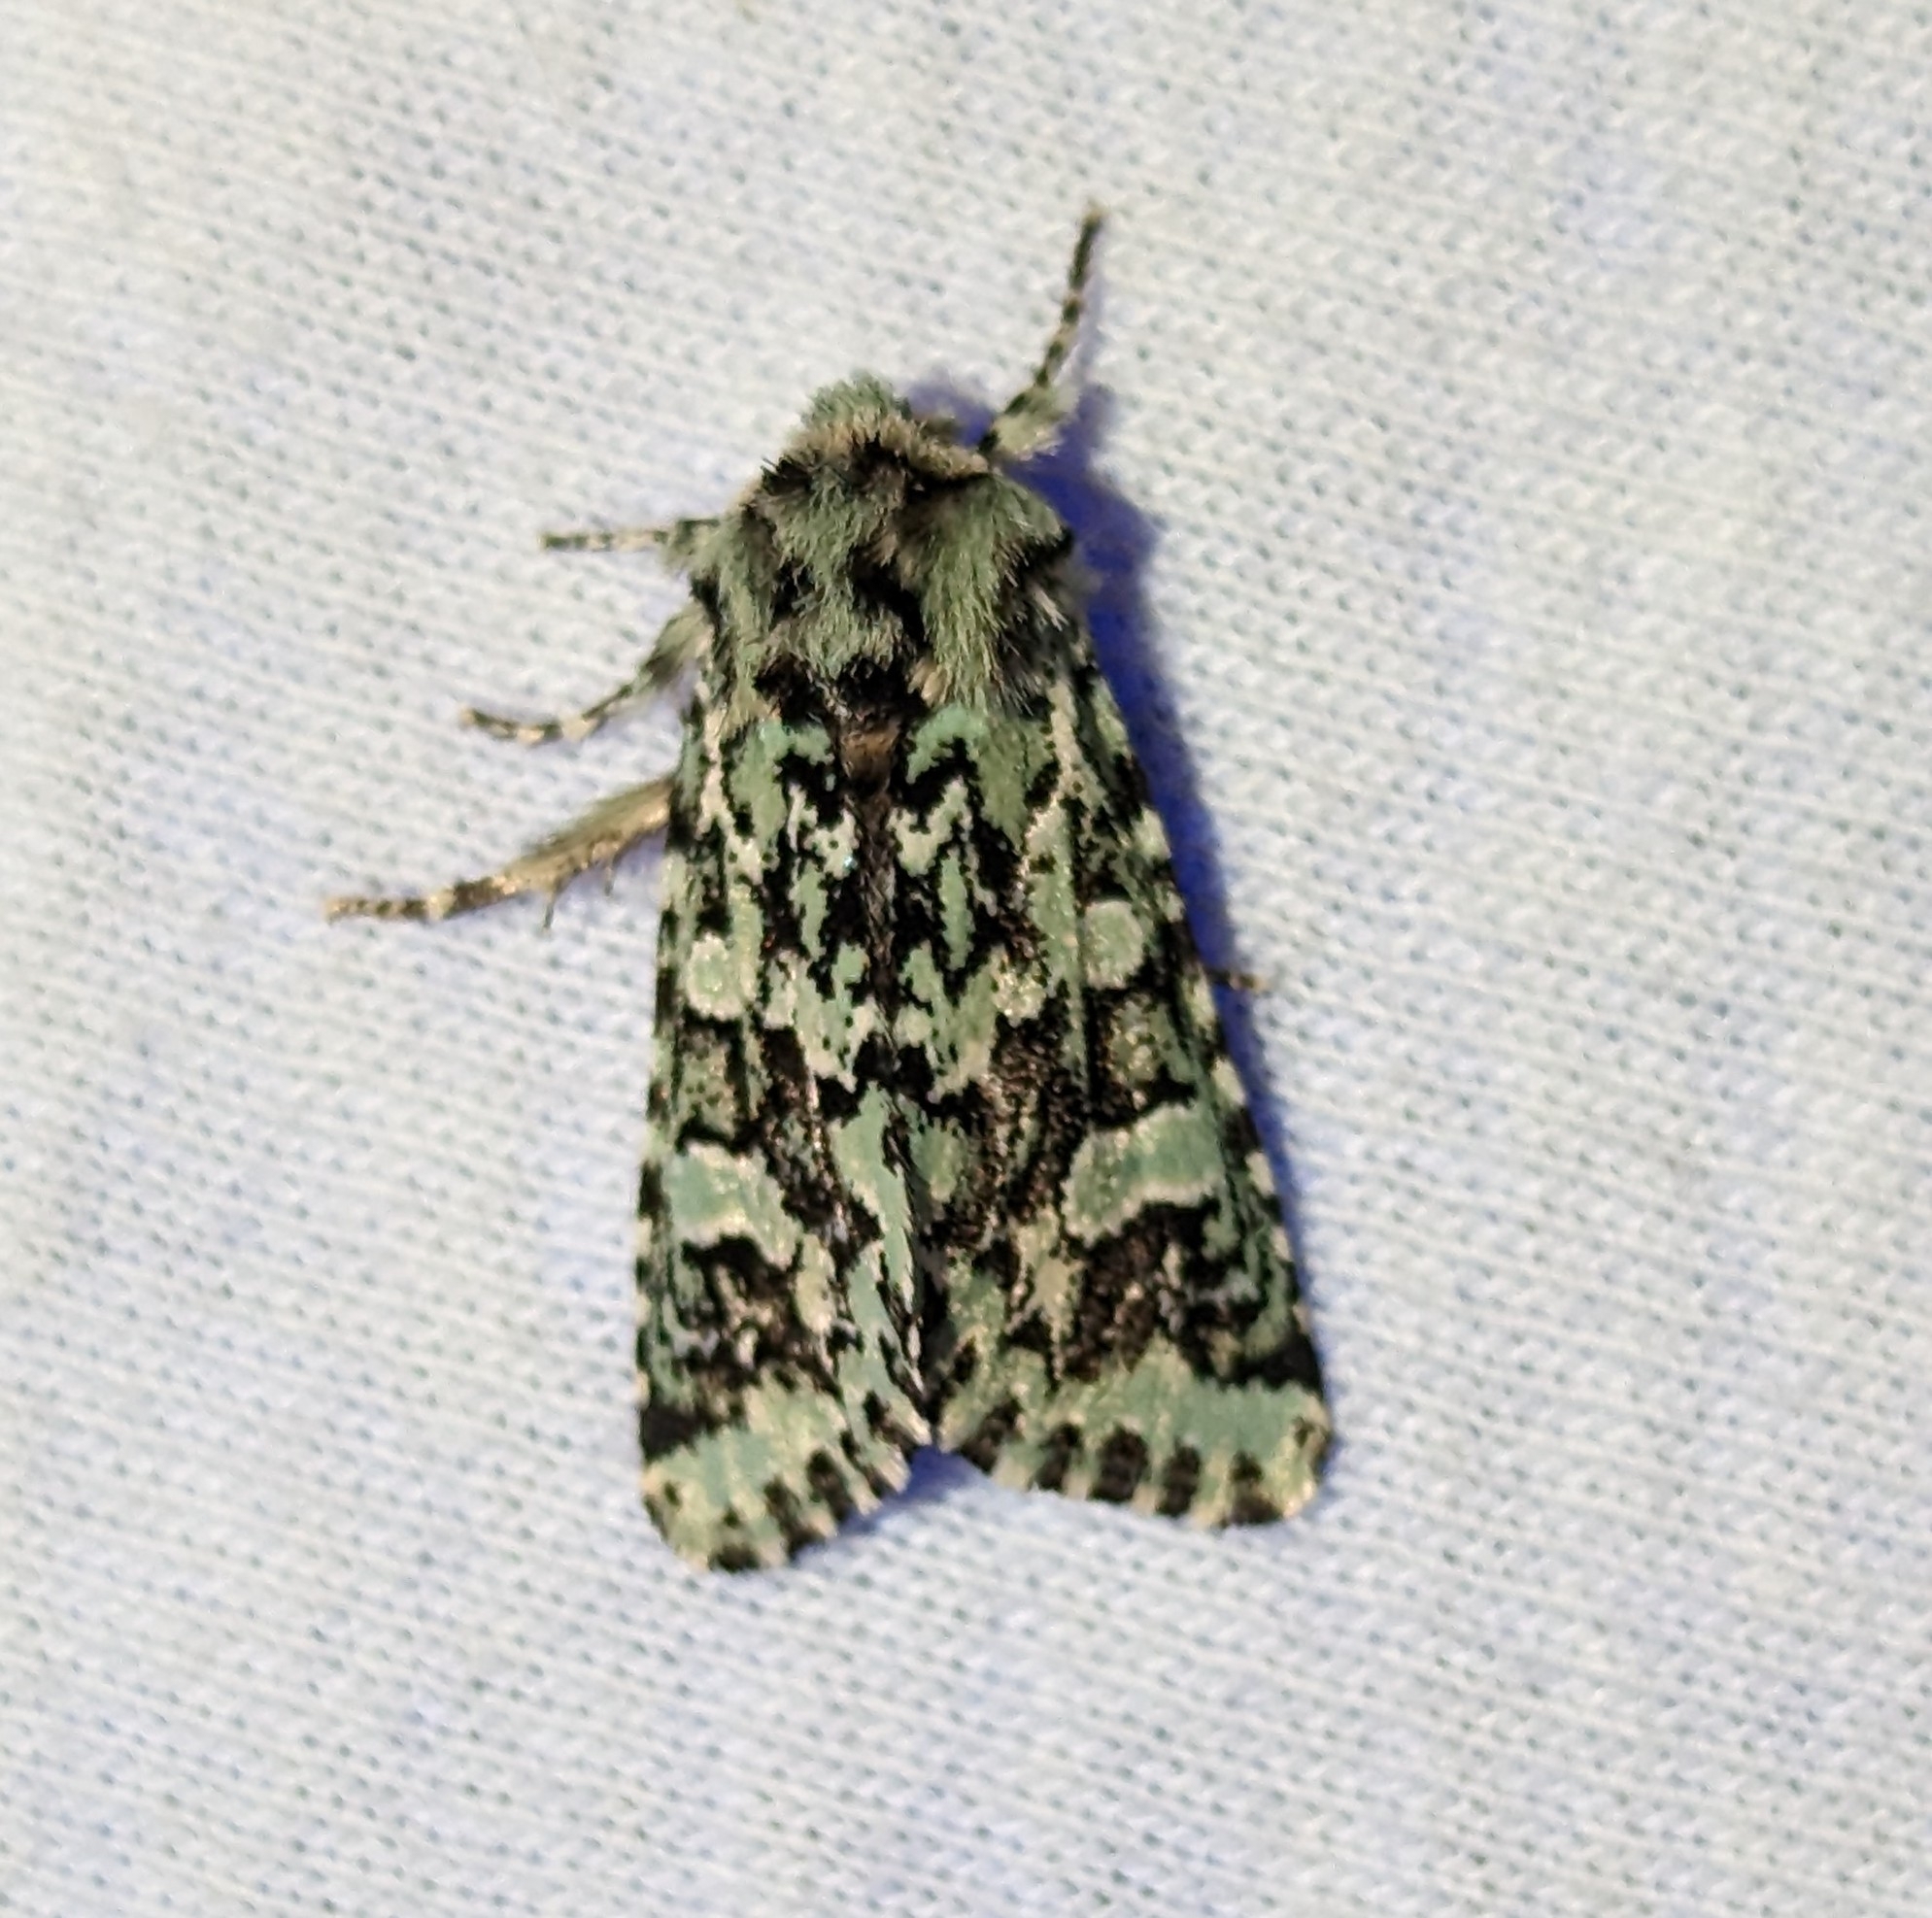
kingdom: Animalia
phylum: Arthropoda
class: Insecta
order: Lepidoptera
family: Noctuidae
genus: Feralia
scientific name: Feralia comstocki
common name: Comstock's sallow
